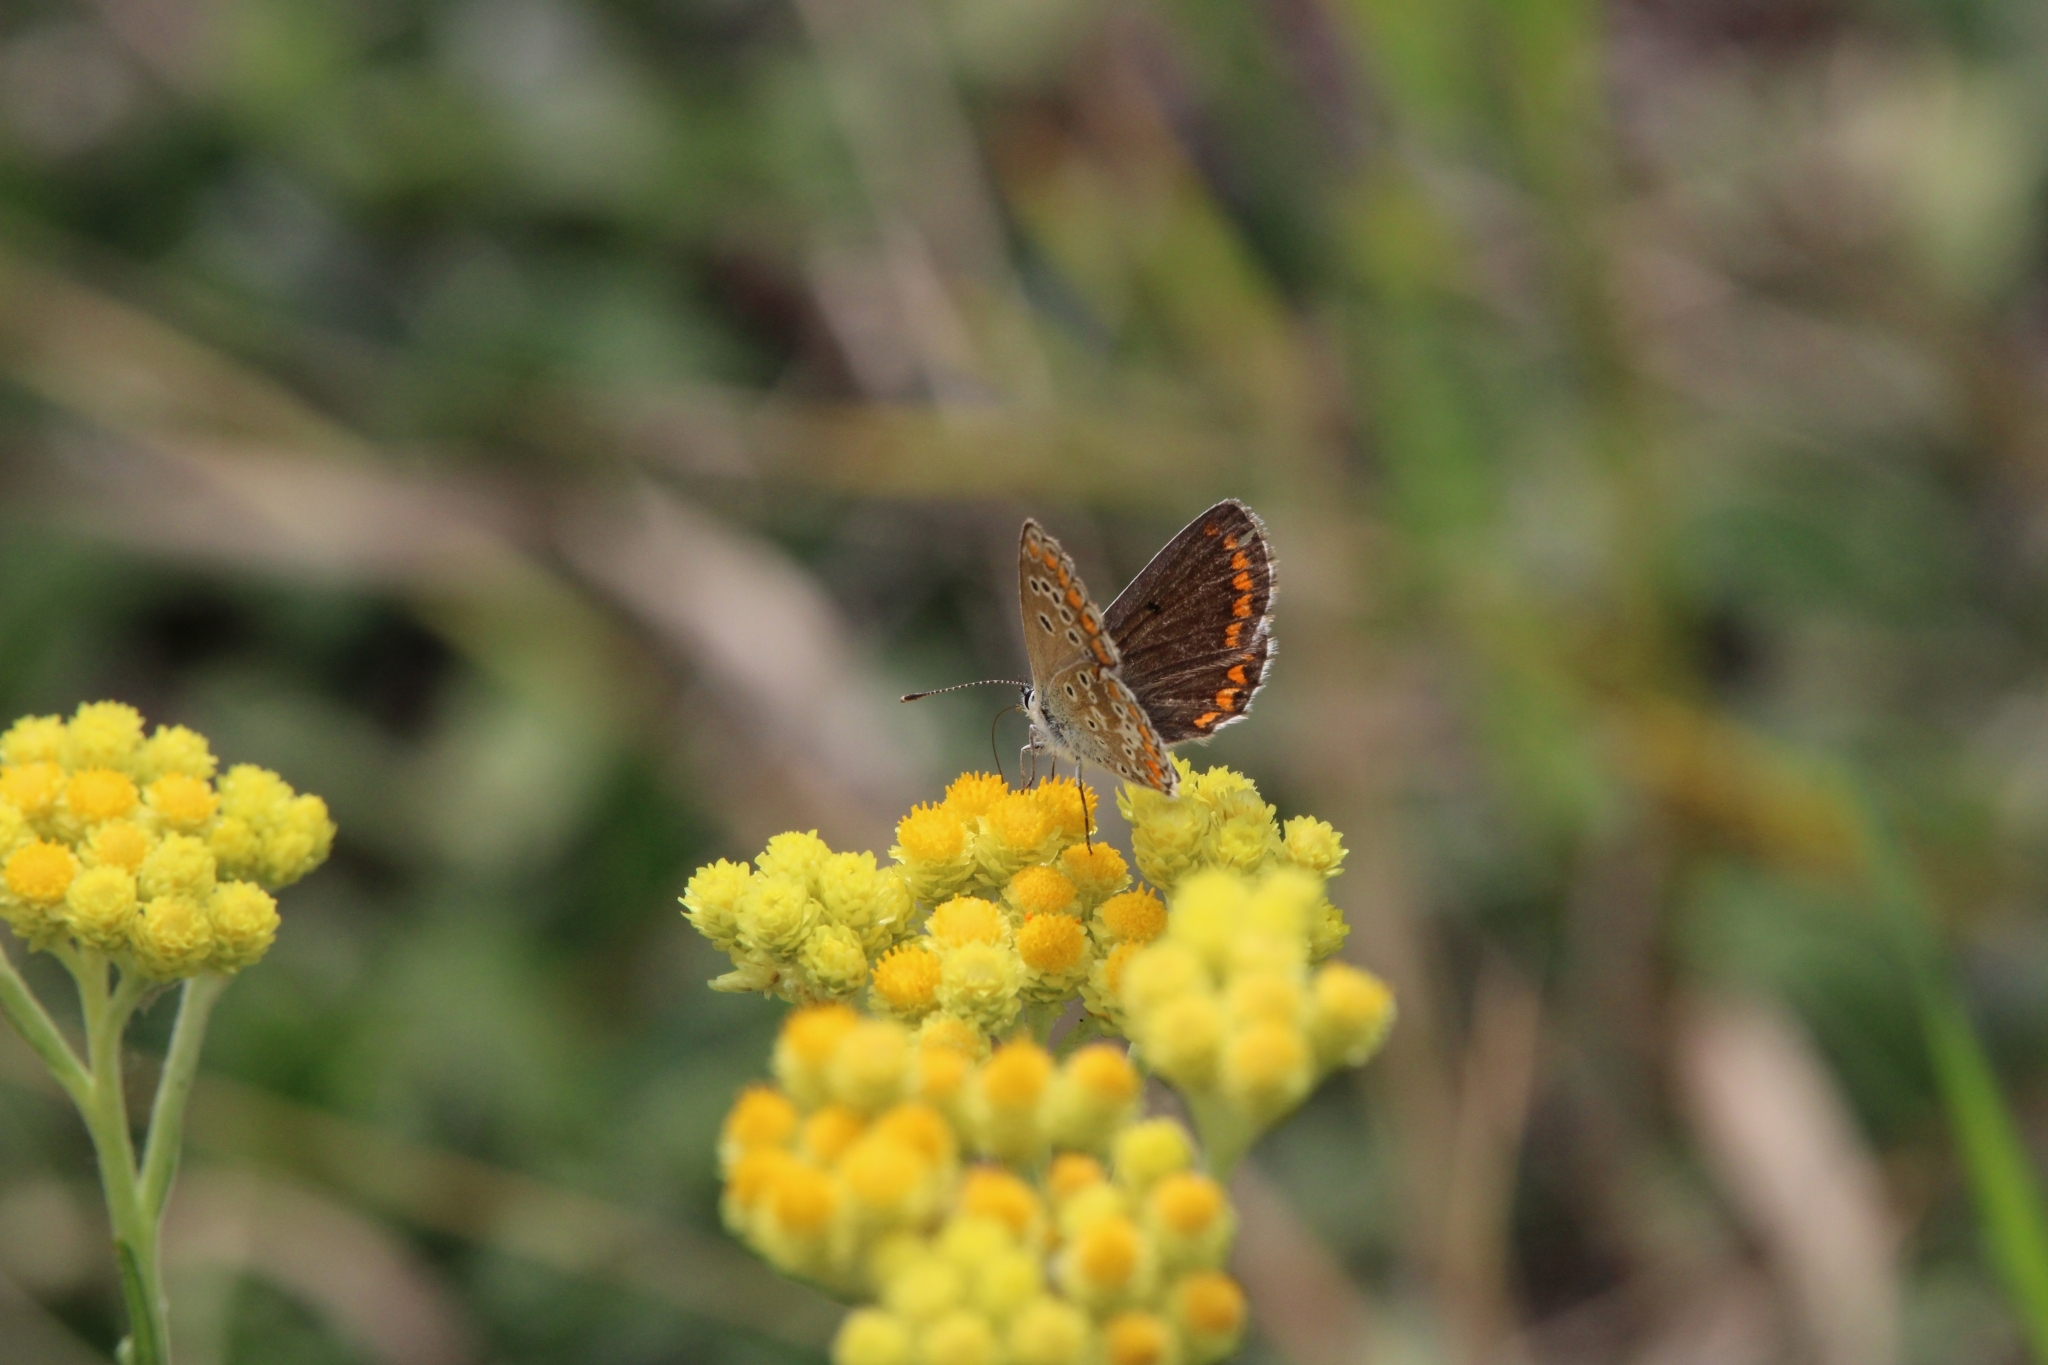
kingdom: Animalia
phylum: Arthropoda
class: Insecta
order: Lepidoptera
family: Lycaenidae
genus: Aricia
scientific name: Aricia agestis
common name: Brown argus
